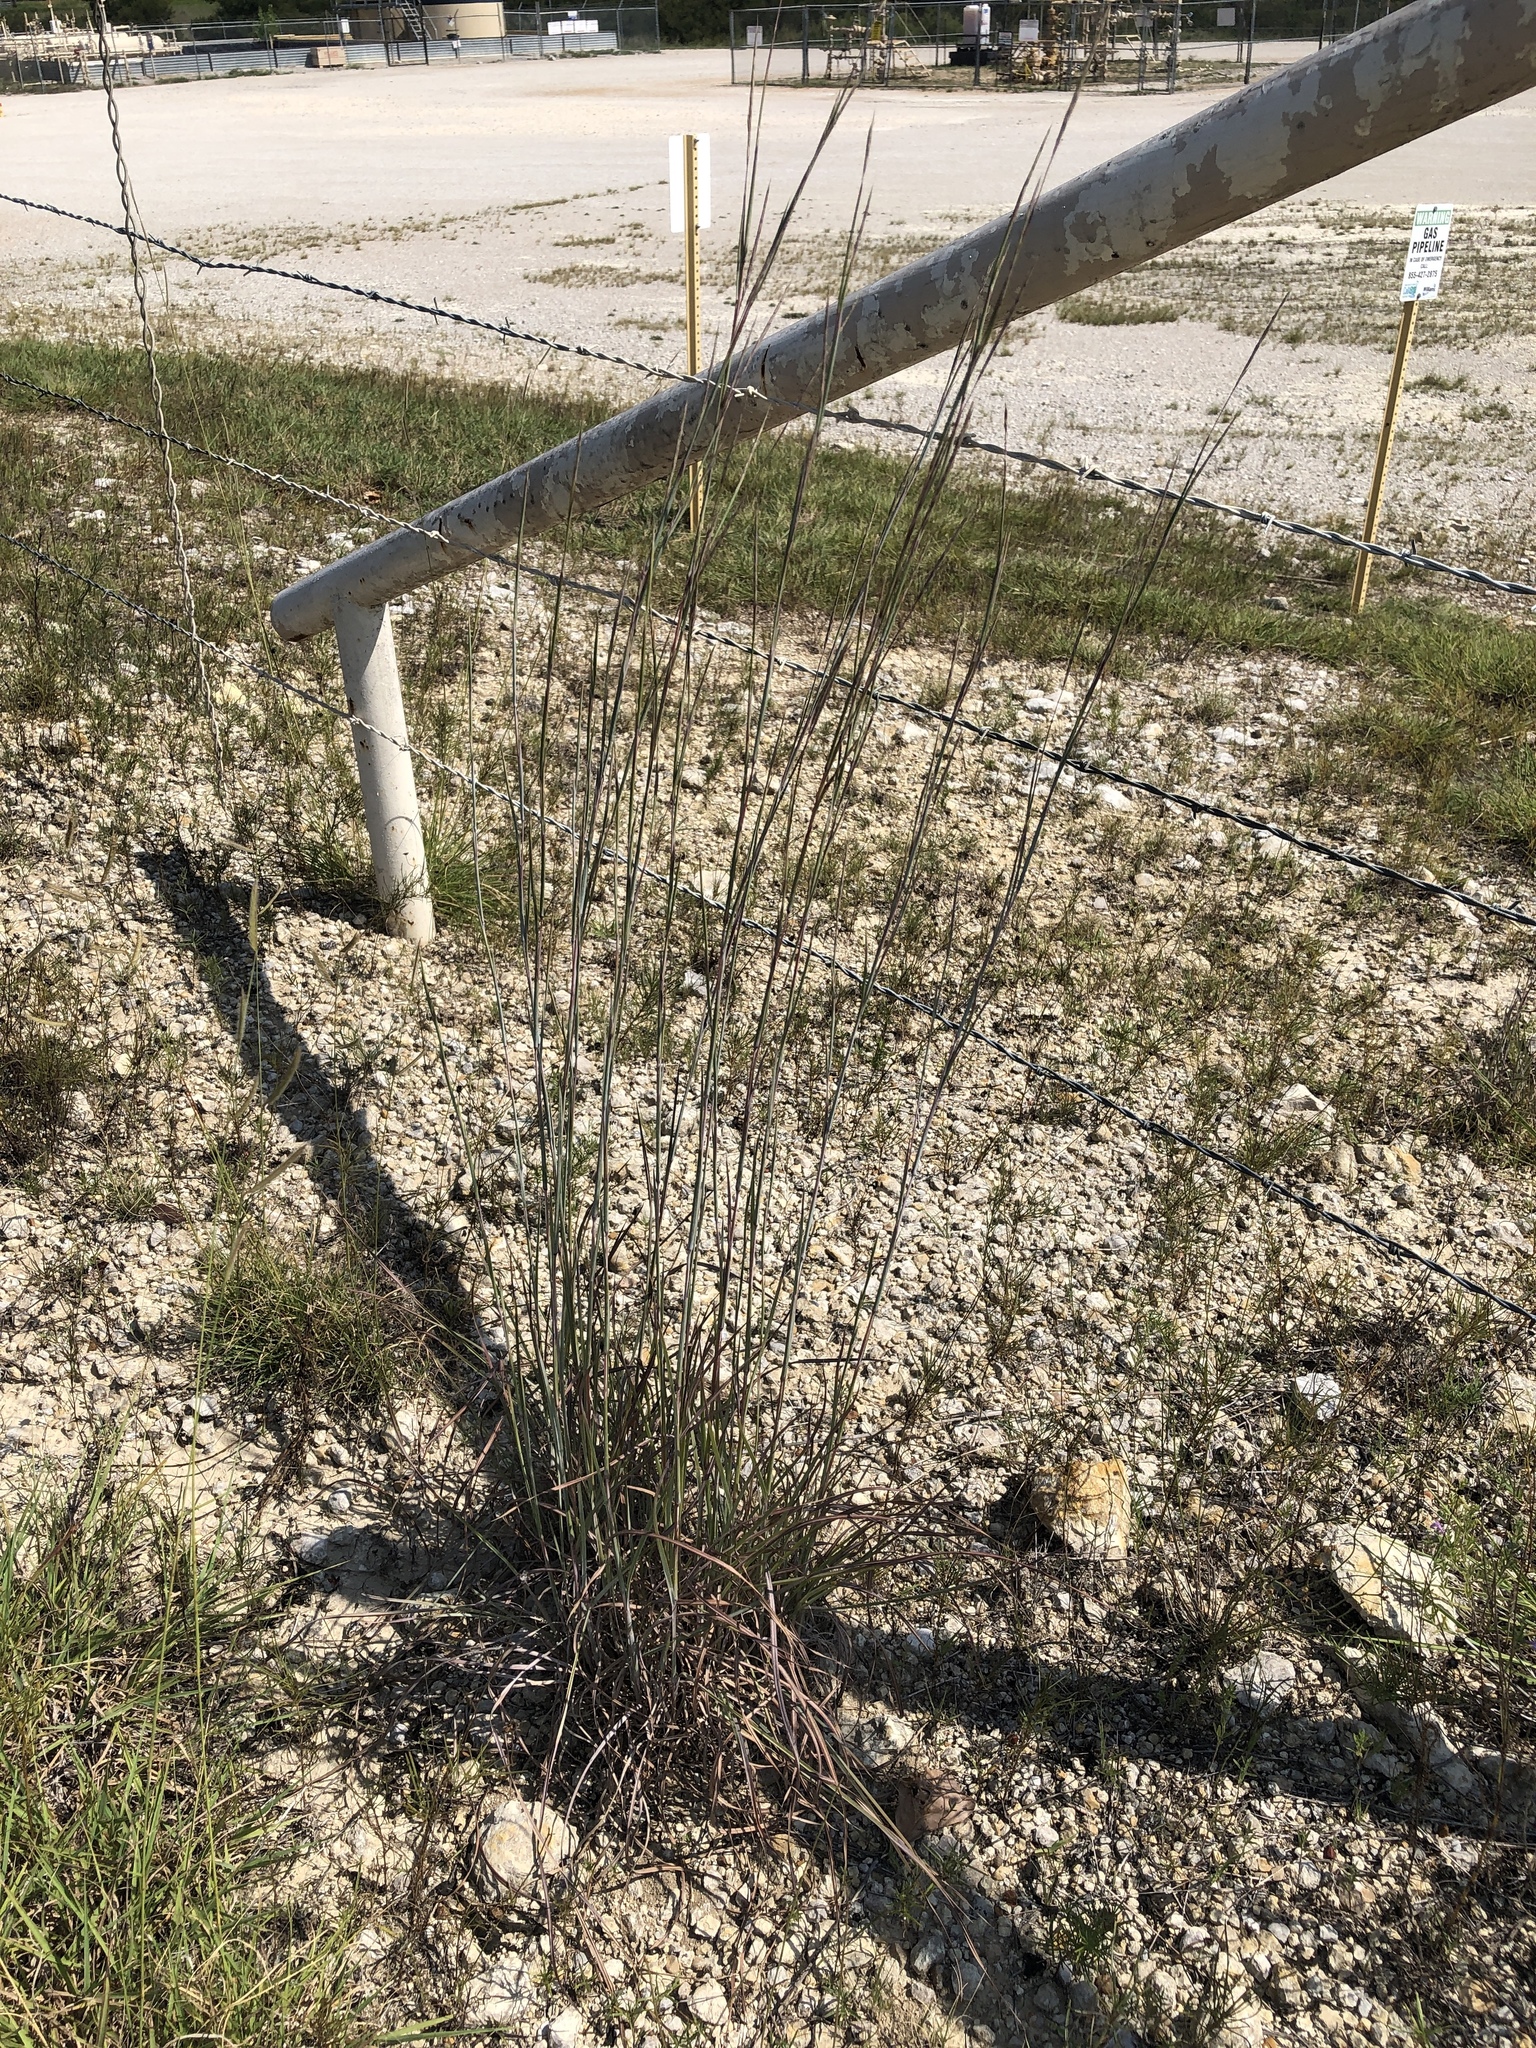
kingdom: Plantae
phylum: Tracheophyta
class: Liliopsida
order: Poales
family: Poaceae
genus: Schizachyrium
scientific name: Schizachyrium scoparium
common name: Little bluestem
